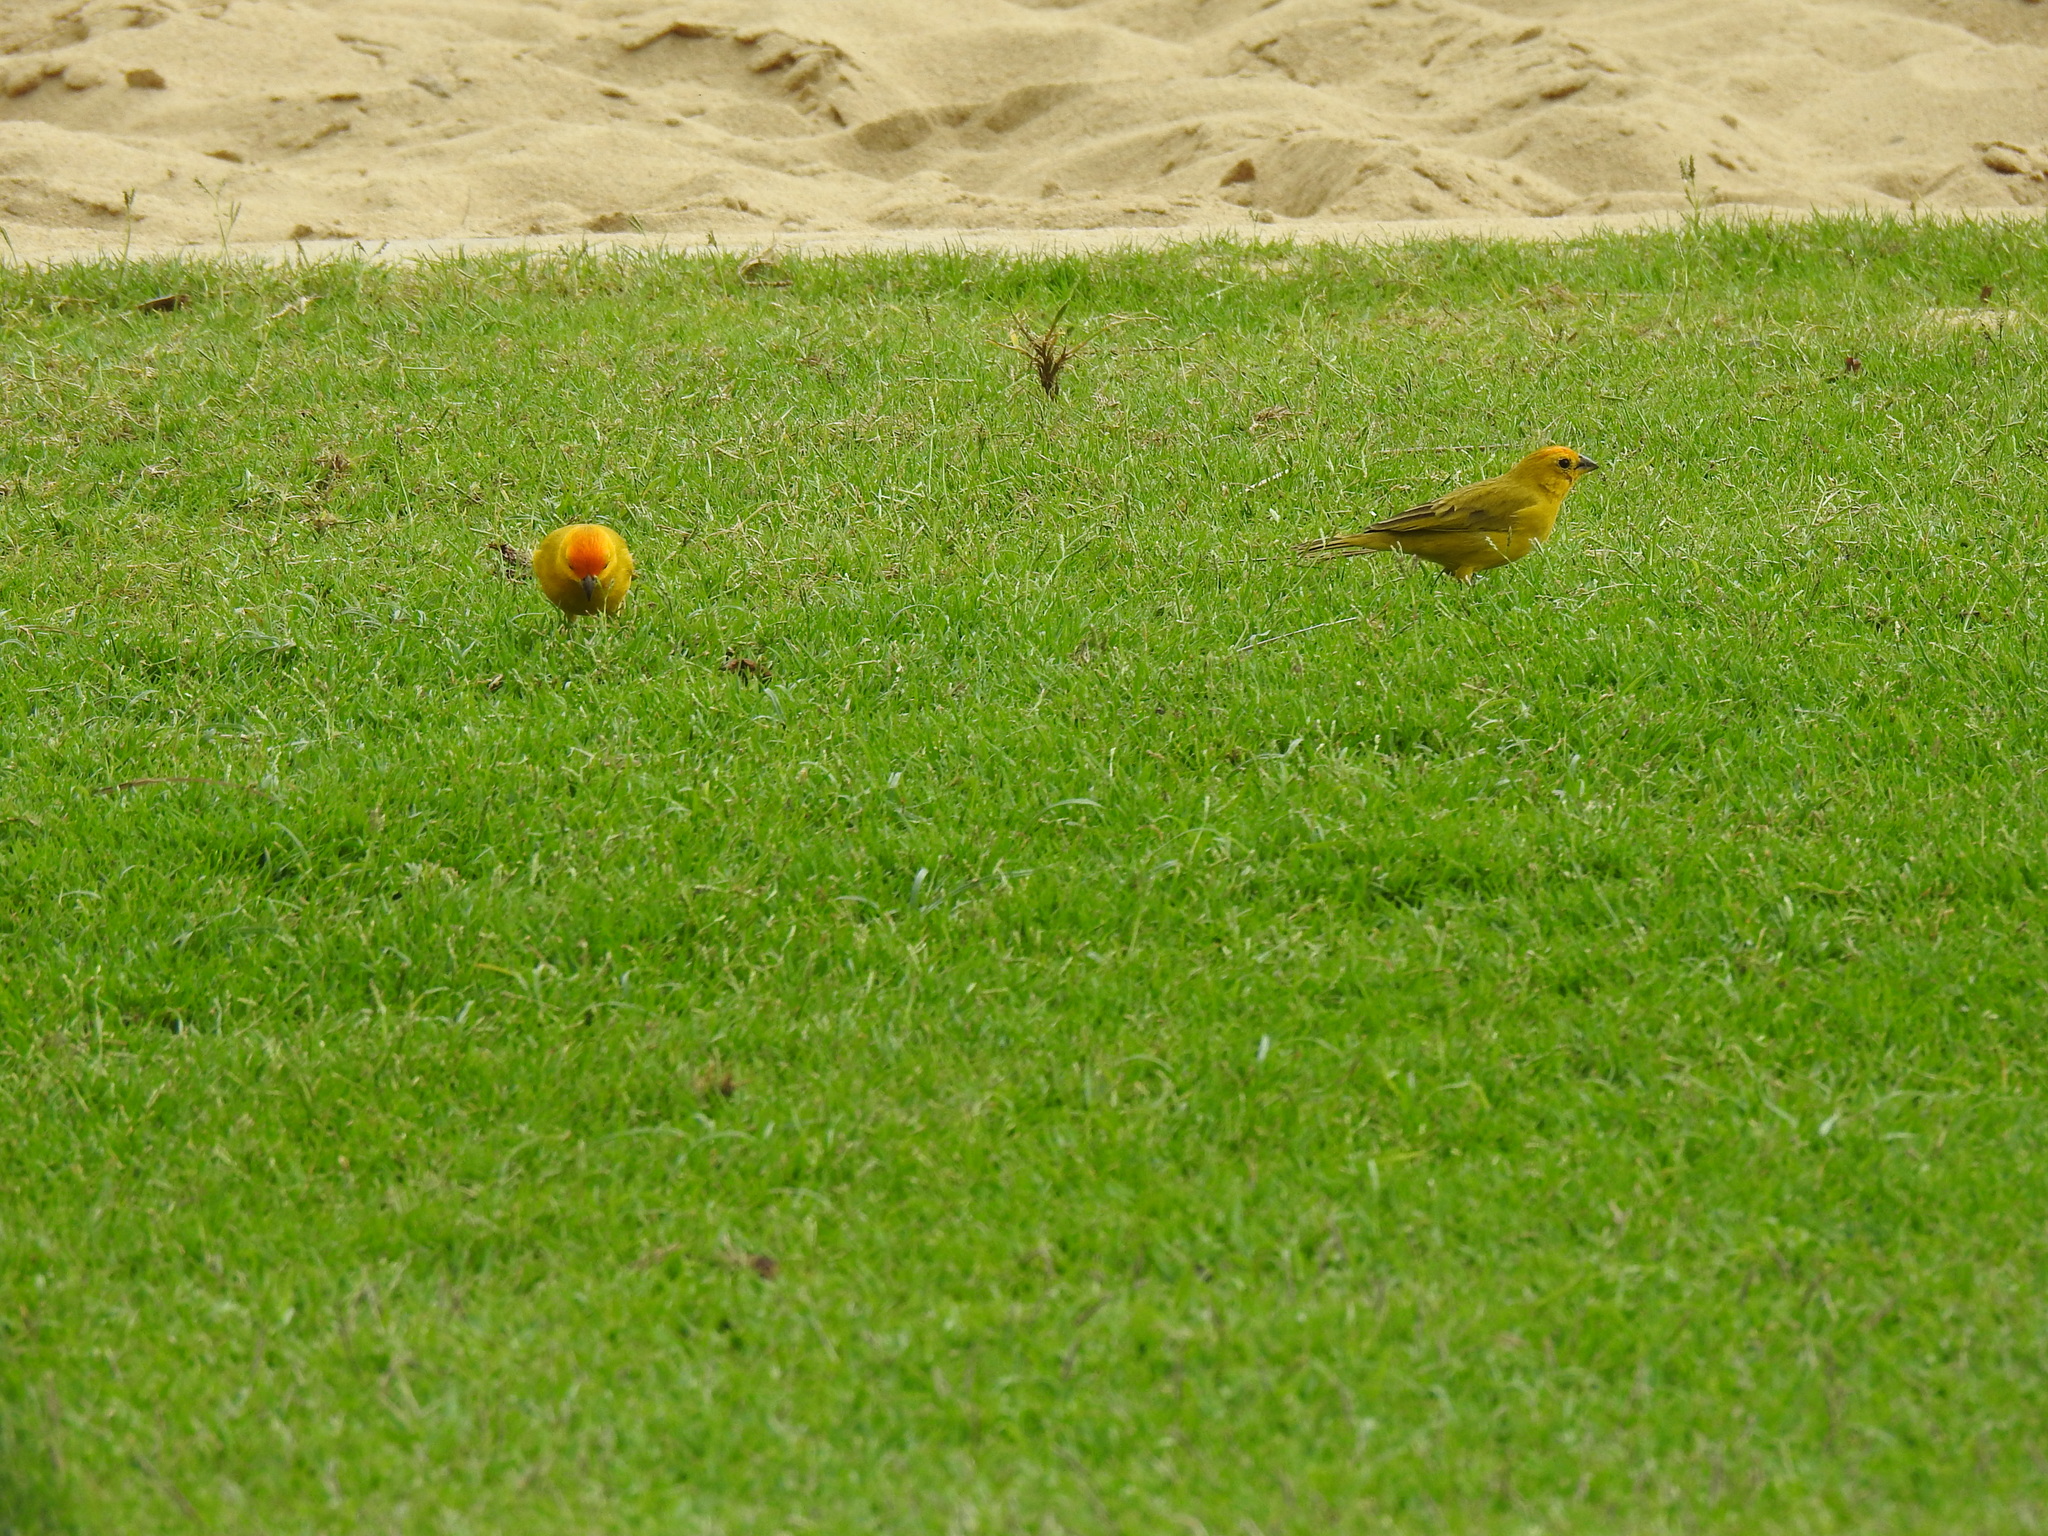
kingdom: Animalia
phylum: Chordata
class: Aves
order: Passeriformes
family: Thraupidae
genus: Sicalis
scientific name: Sicalis flaveola
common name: Saffron finch
